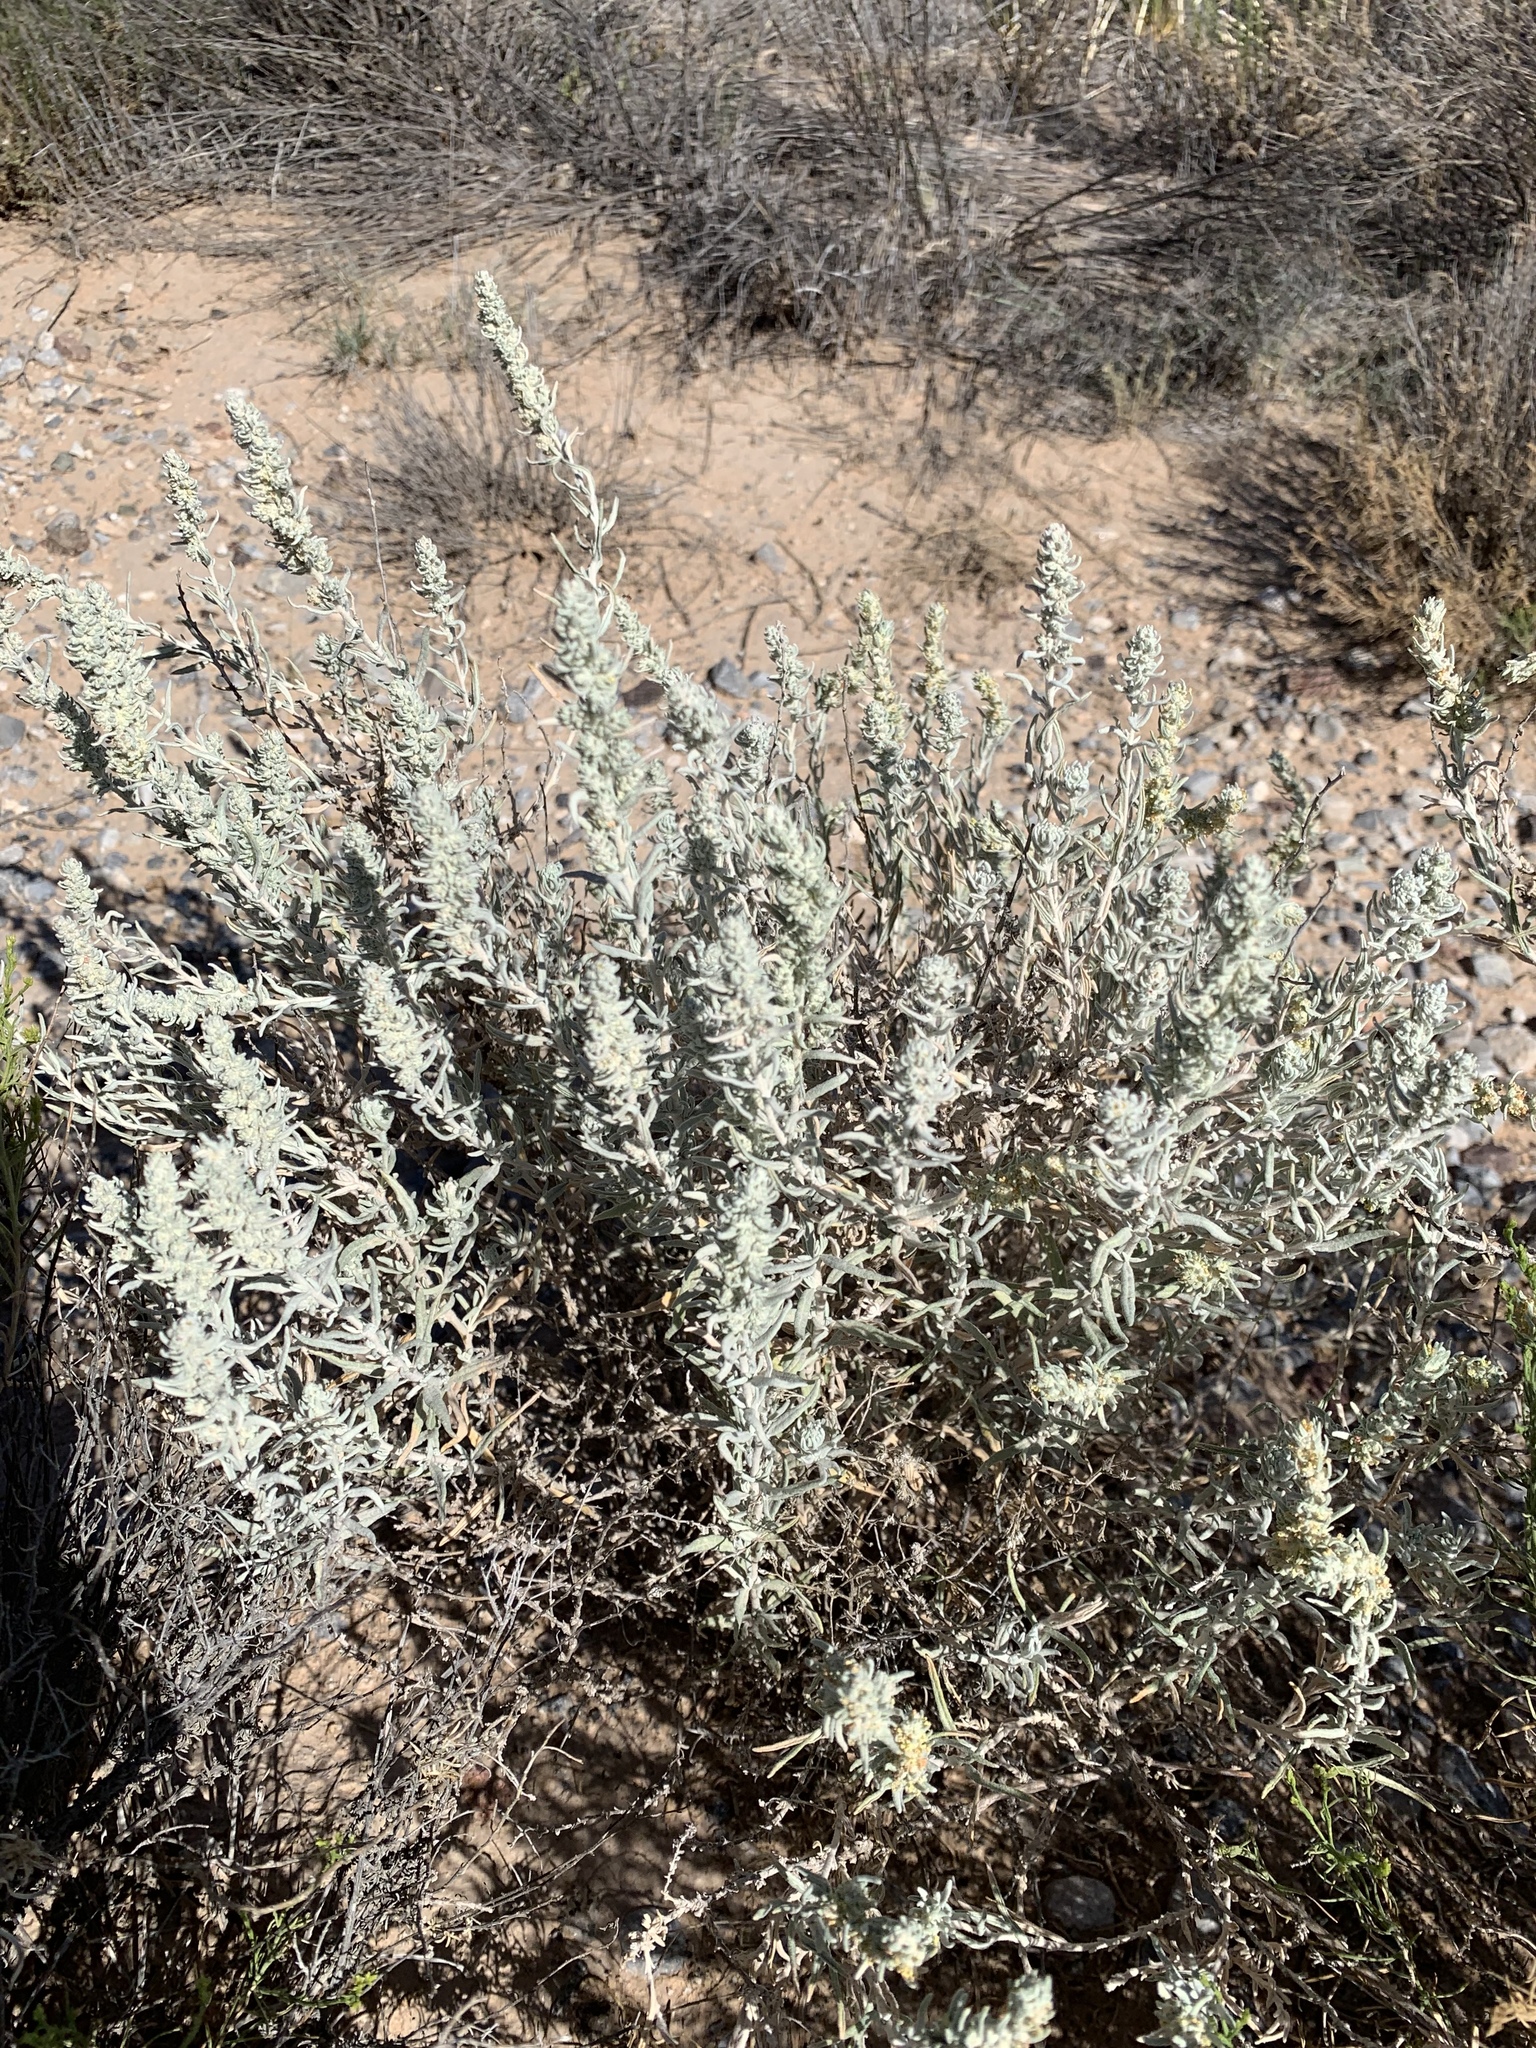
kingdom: Plantae
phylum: Tracheophyta
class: Magnoliopsida
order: Caryophyllales
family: Amaranthaceae
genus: Krascheninnikovia
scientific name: Krascheninnikovia lanata
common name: Winterfat
